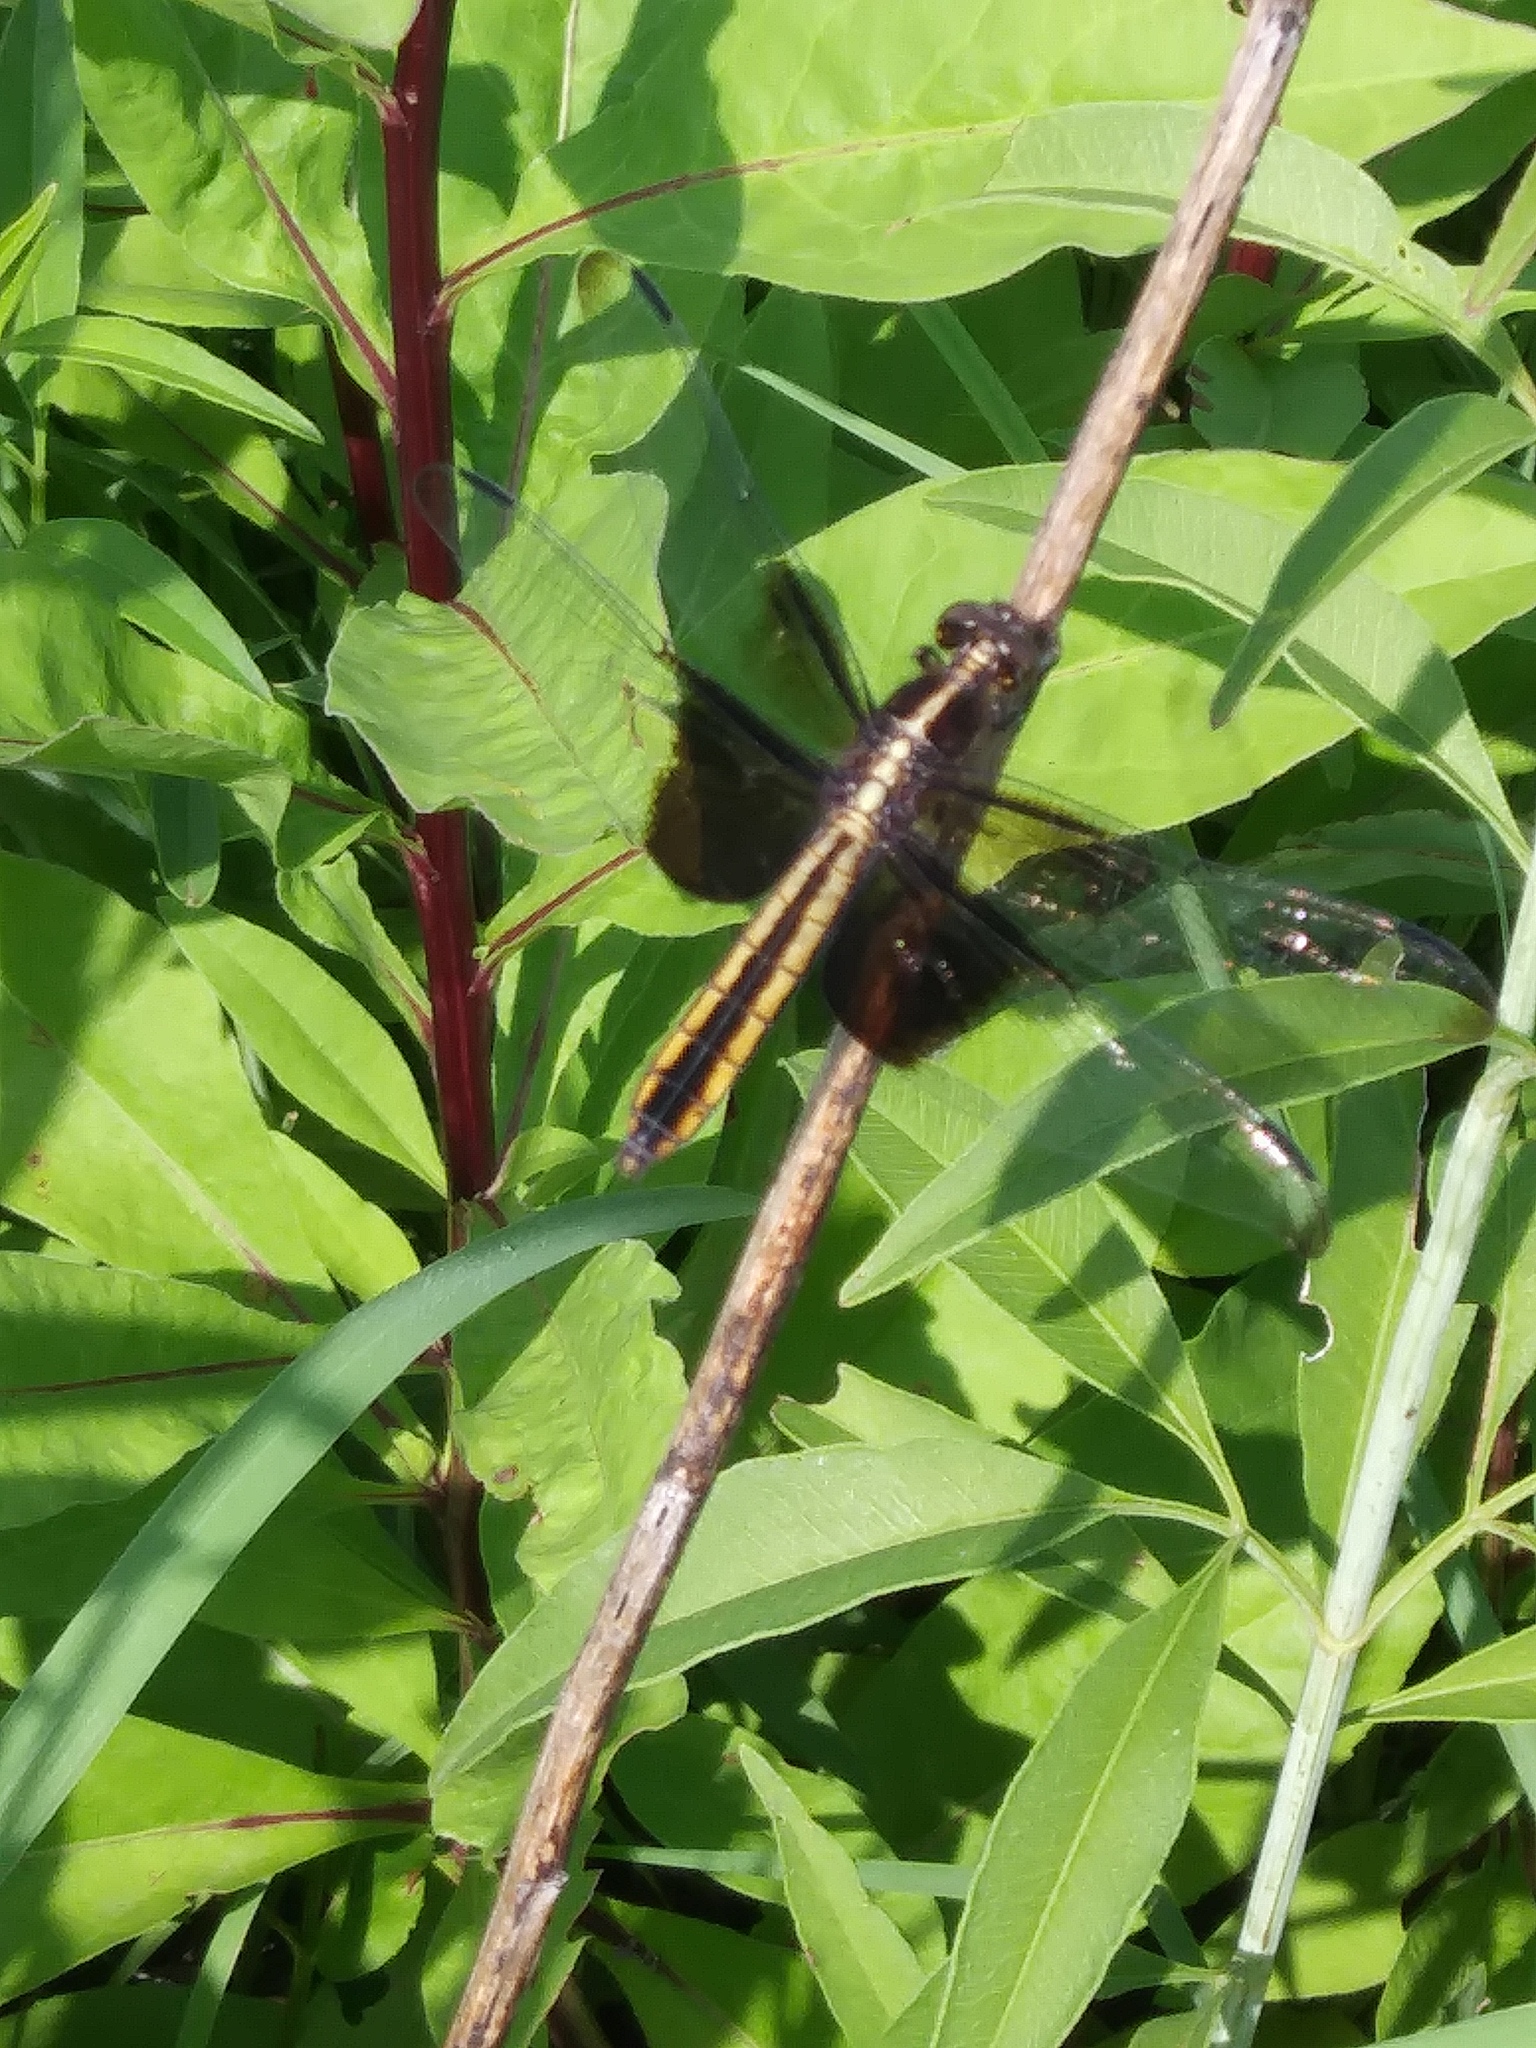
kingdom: Animalia
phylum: Arthropoda
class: Insecta
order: Odonata
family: Libellulidae
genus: Libellula
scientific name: Libellula luctuosa
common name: Widow skimmer
